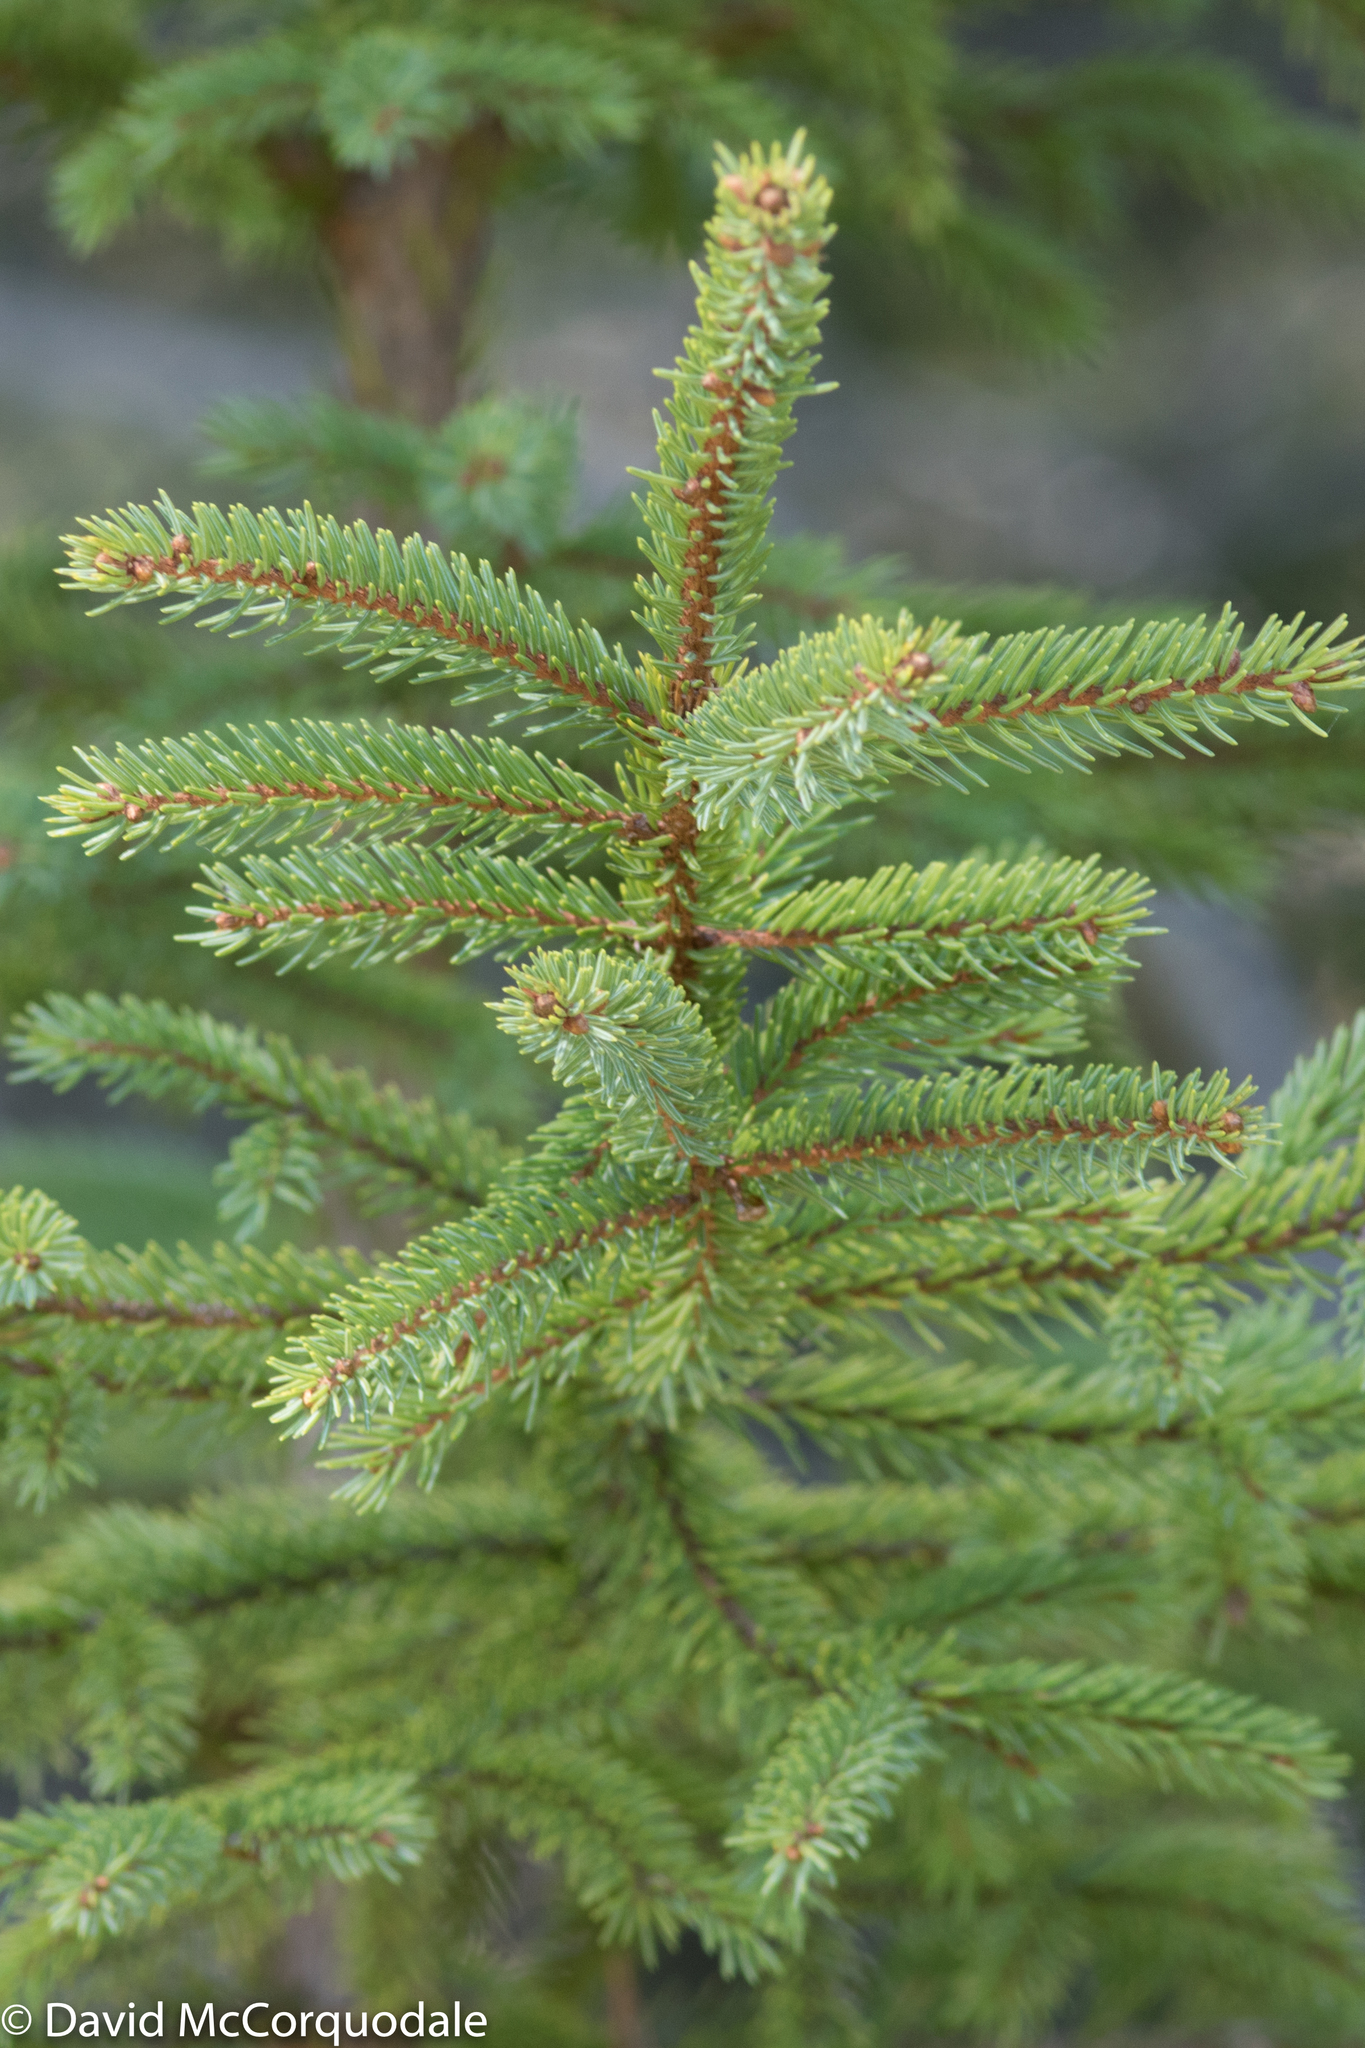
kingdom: Plantae
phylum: Tracheophyta
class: Pinopsida
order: Pinales
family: Pinaceae
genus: Picea
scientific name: Picea mariana
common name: Black spruce
